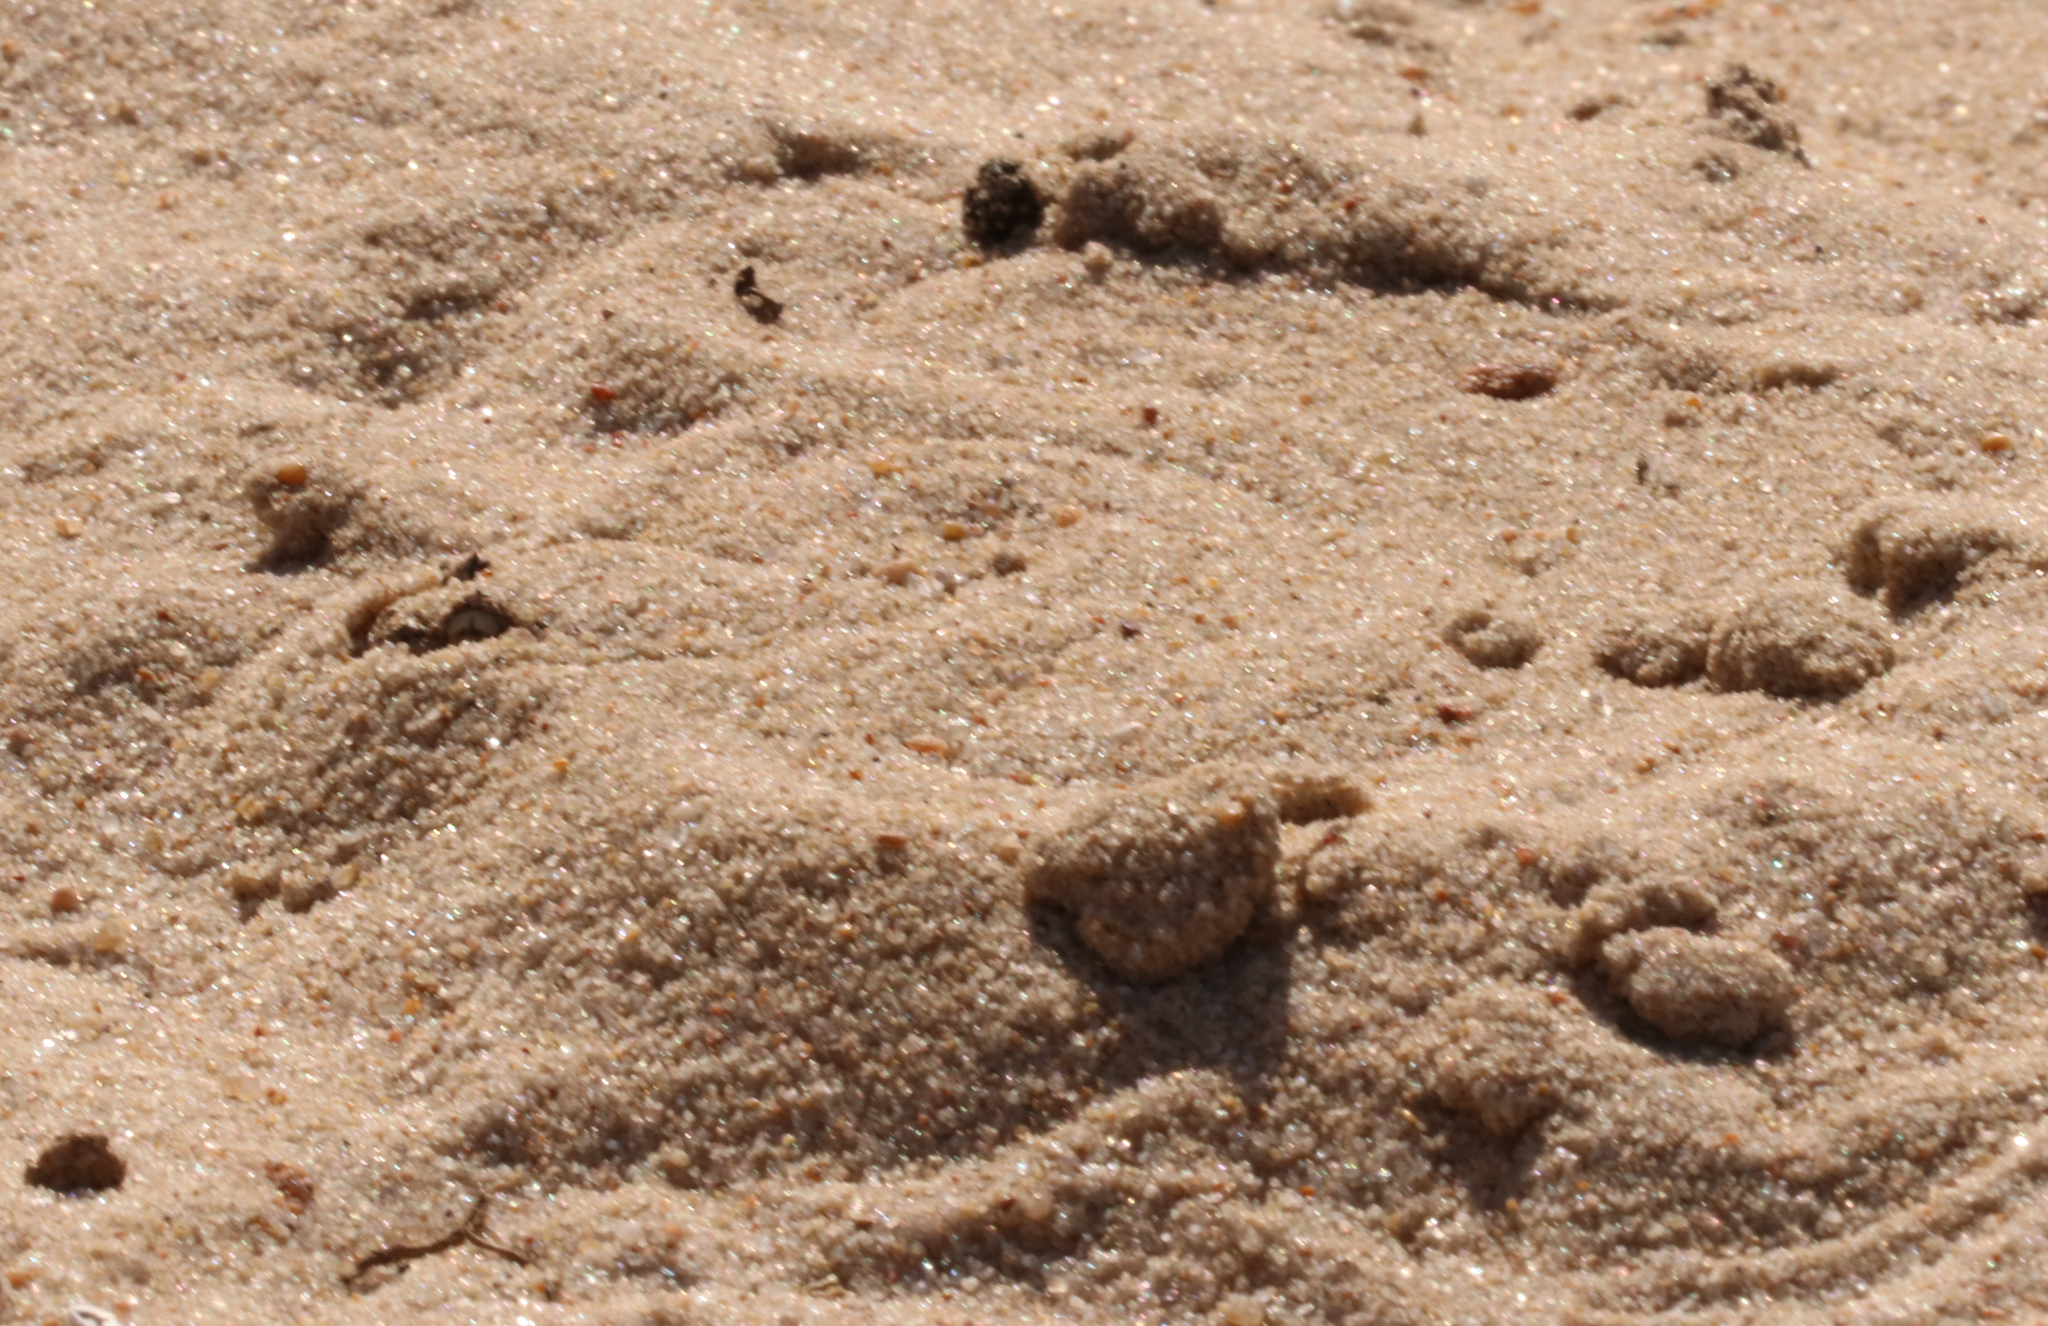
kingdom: Animalia
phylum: Chordata
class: Squamata
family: Viperidae
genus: Bitis
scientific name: Bitis schneideri
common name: Namaqua dwarf adder
